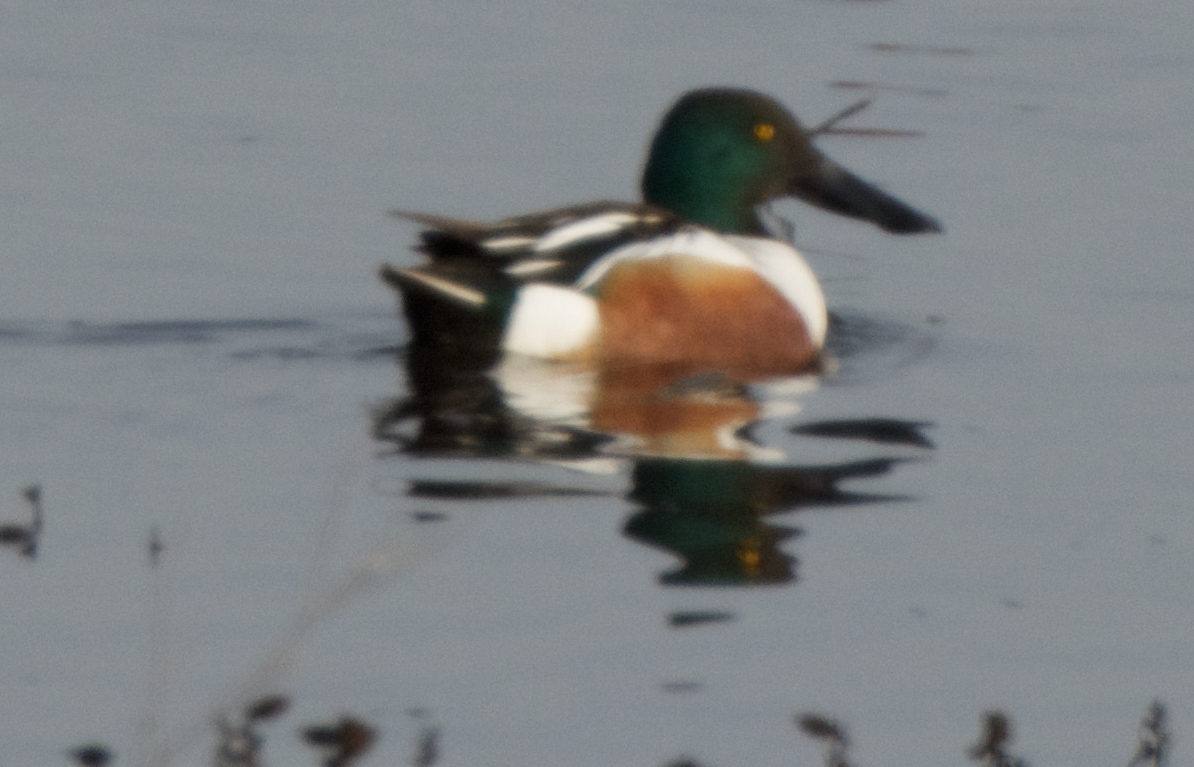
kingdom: Animalia
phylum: Chordata
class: Aves
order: Anseriformes
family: Anatidae
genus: Spatula
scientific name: Spatula clypeata
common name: Northern shoveler
